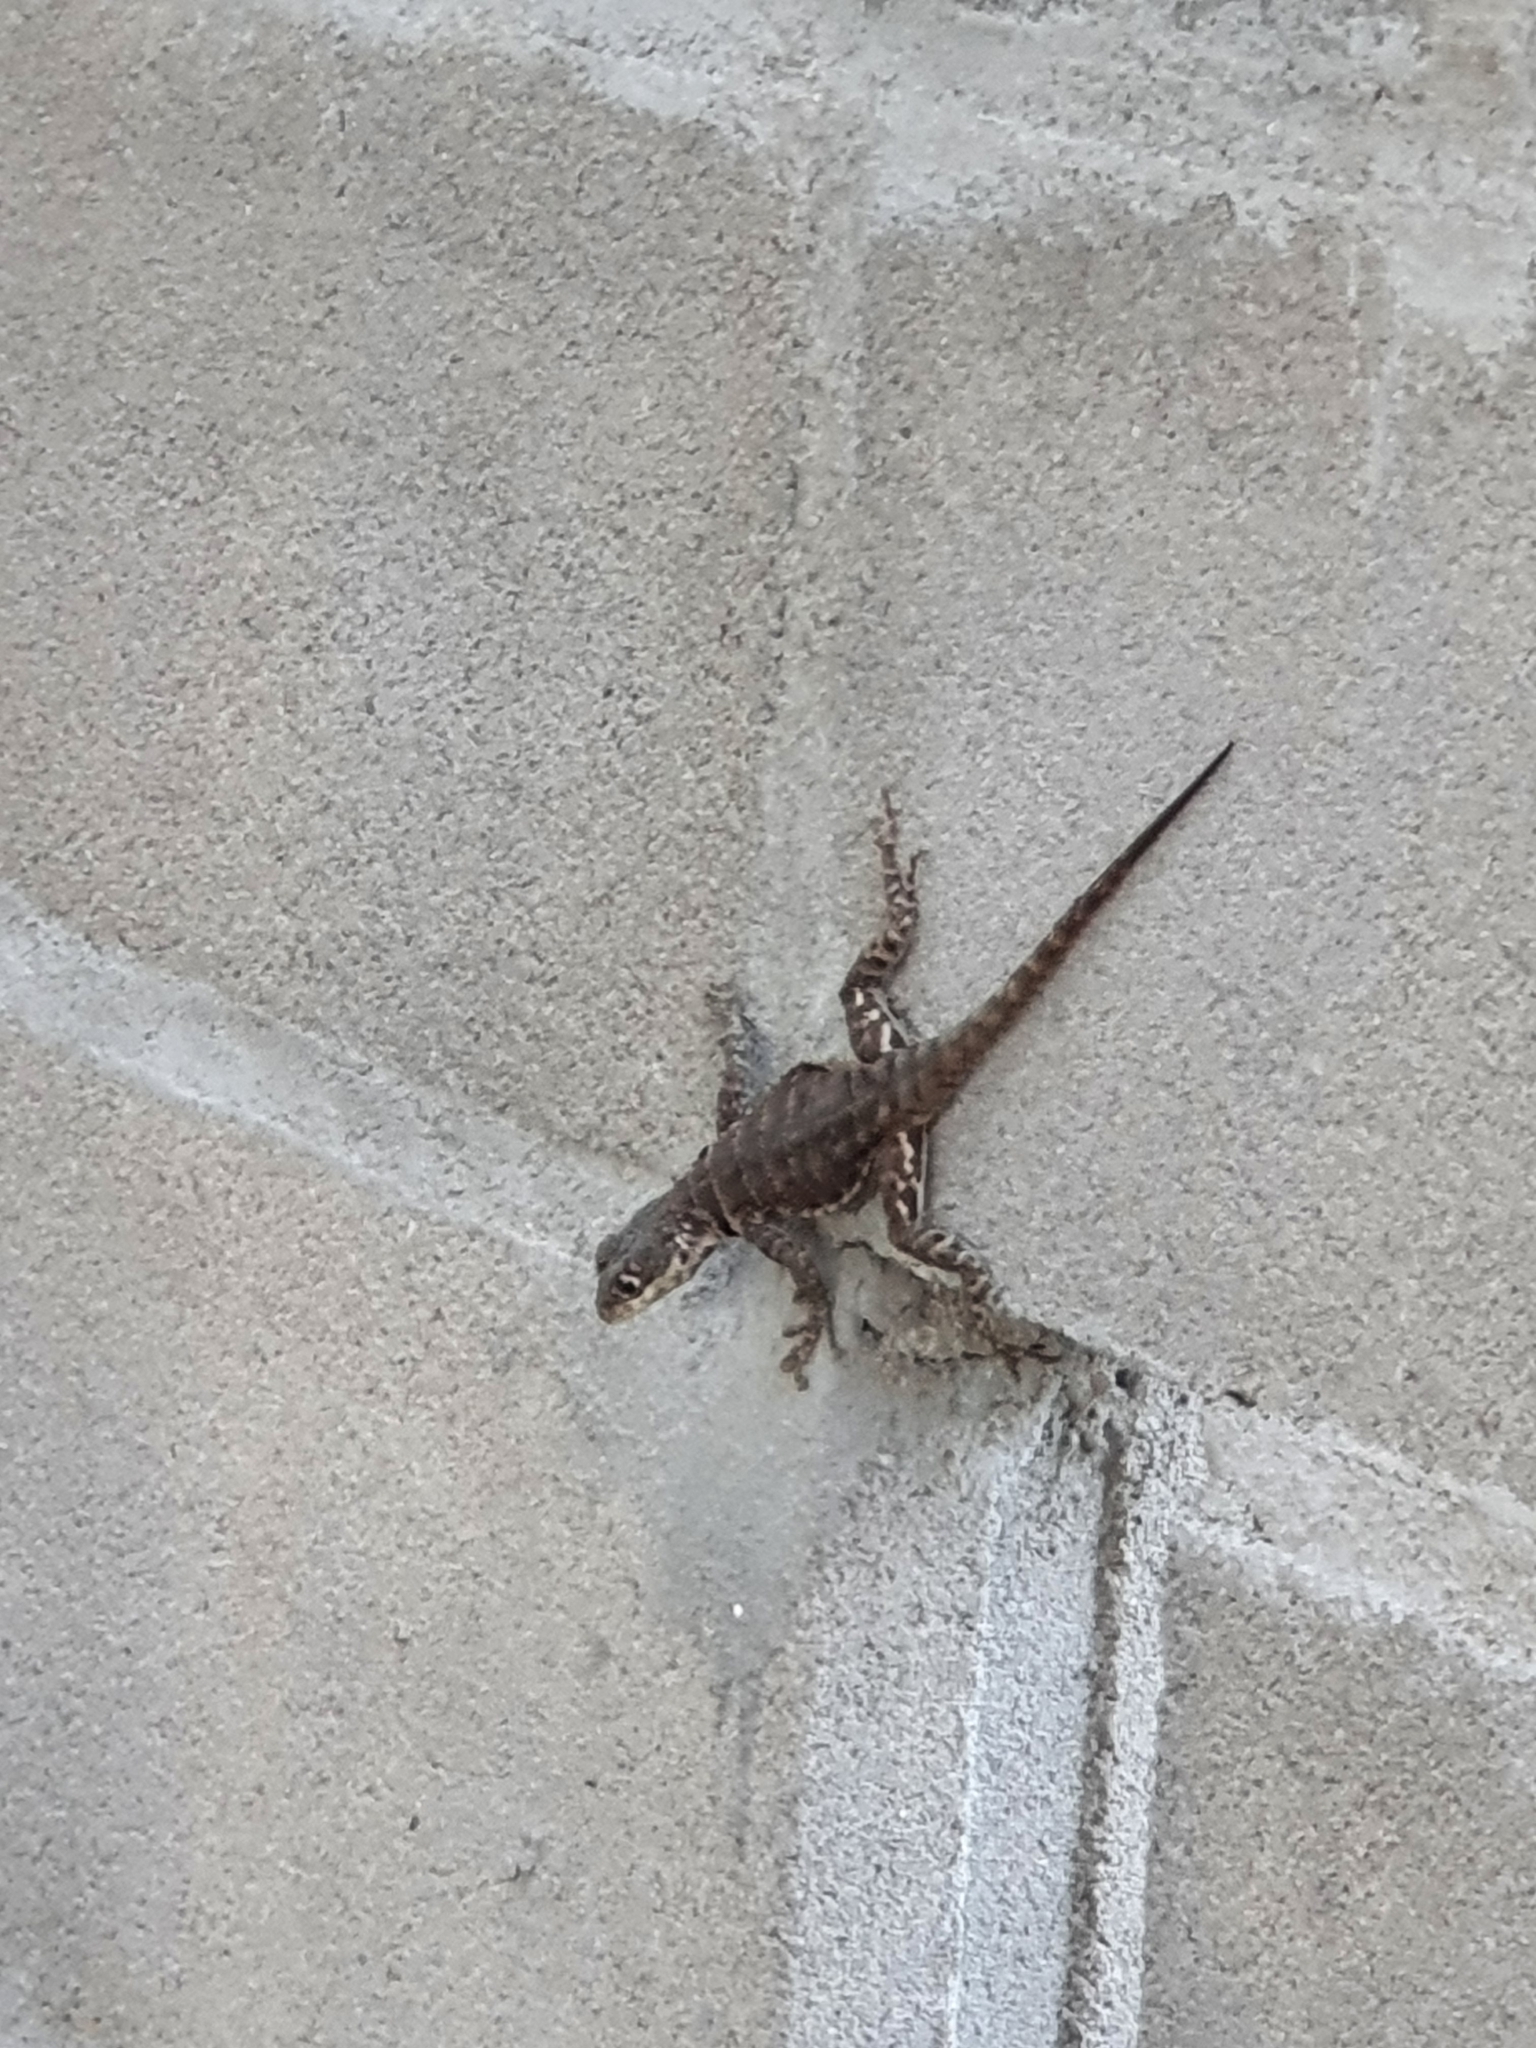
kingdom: Animalia
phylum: Chordata
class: Squamata
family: Tropiduridae
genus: Tropidurus
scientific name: Tropidurus torquatus
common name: Amazon lava lizard
